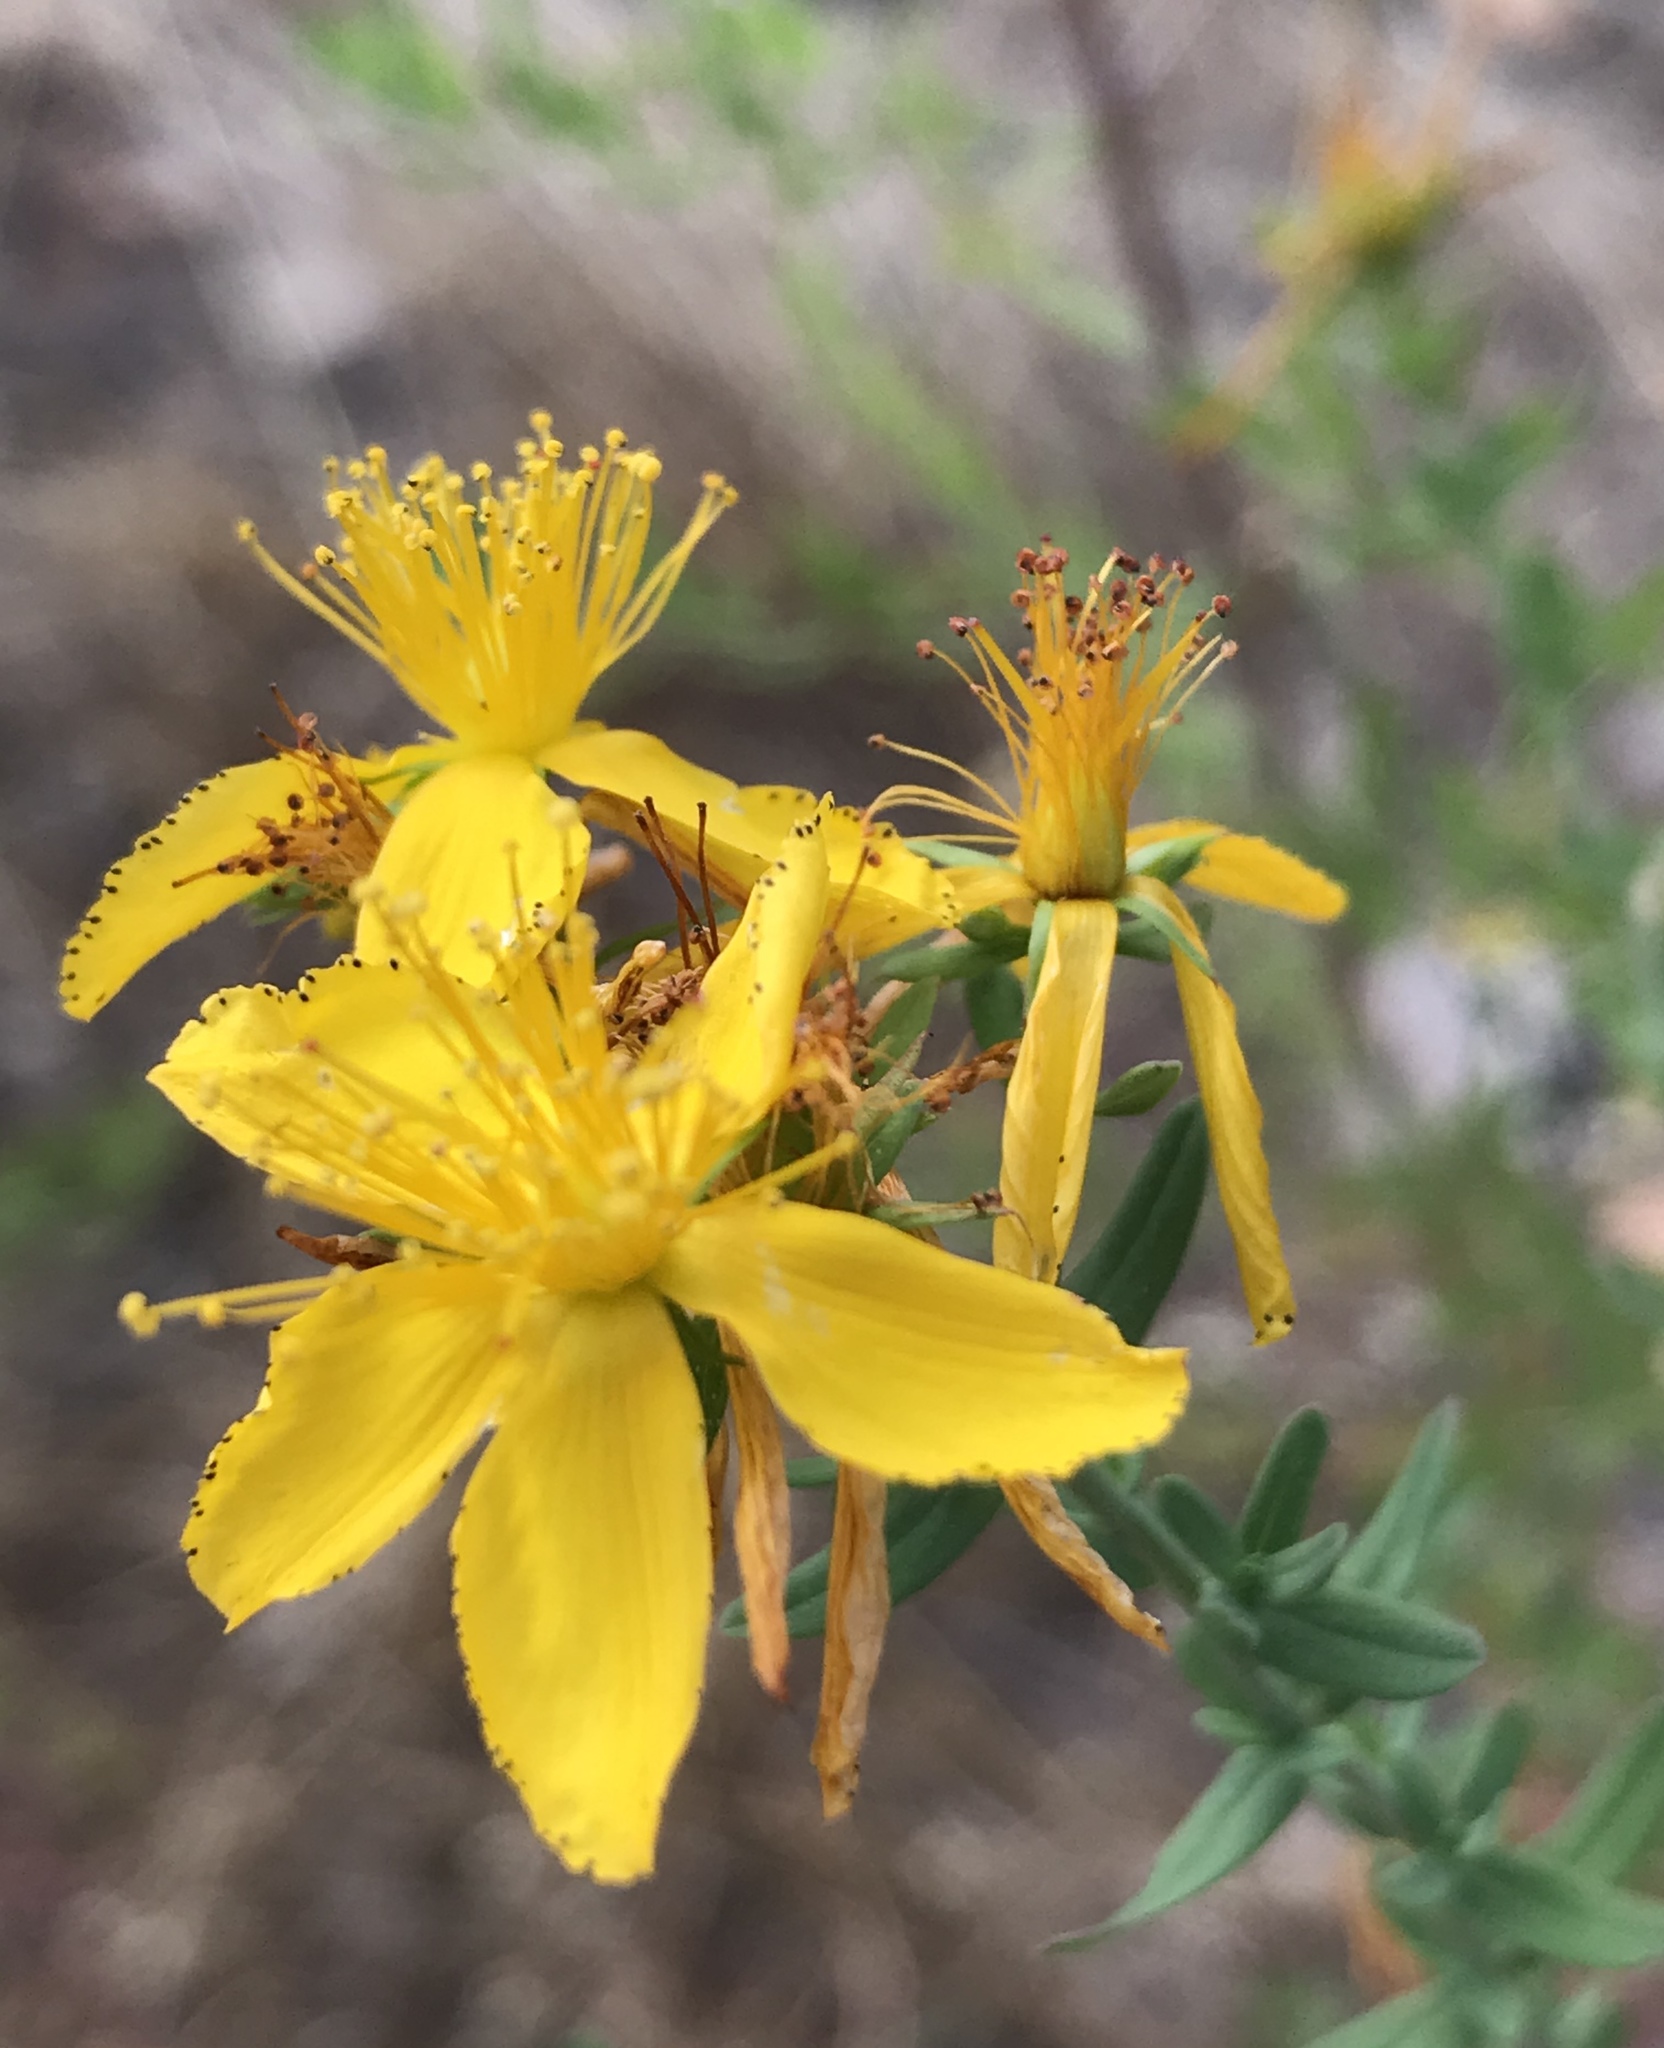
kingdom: Plantae
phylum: Tracheophyta
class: Magnoliopsida
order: Malpighiales
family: Hypericaceae
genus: Hypericum
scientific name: Hypericum perforatum
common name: Common st. johnswort
